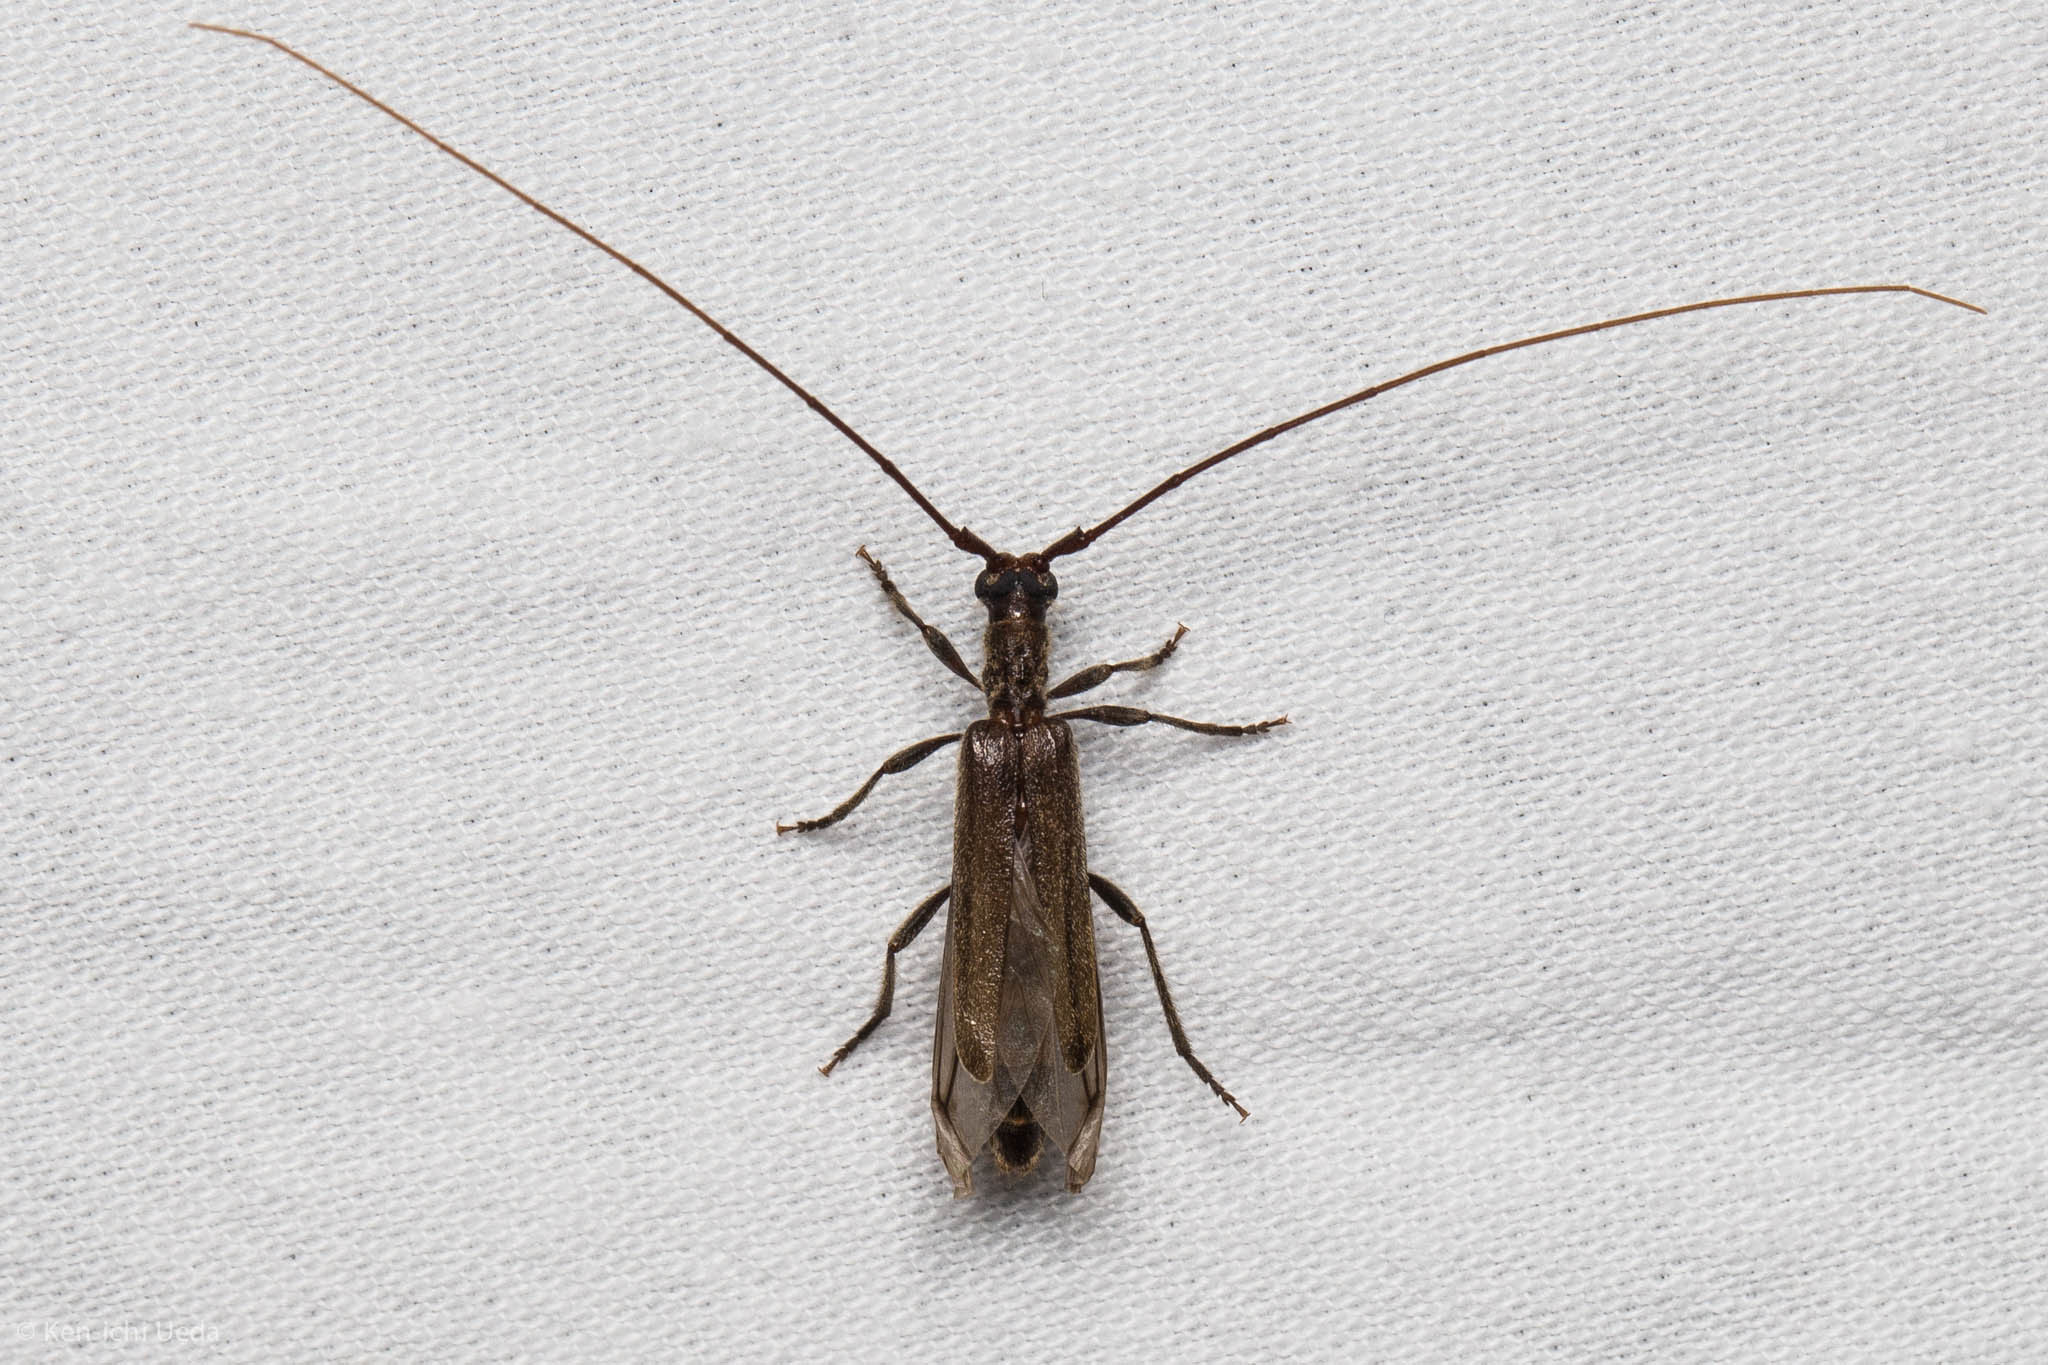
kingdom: Animalia
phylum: Arthropoda
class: Insecta
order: Coleoptera
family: Cerambycidae
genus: Styloxus
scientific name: Styloxus fulleri
